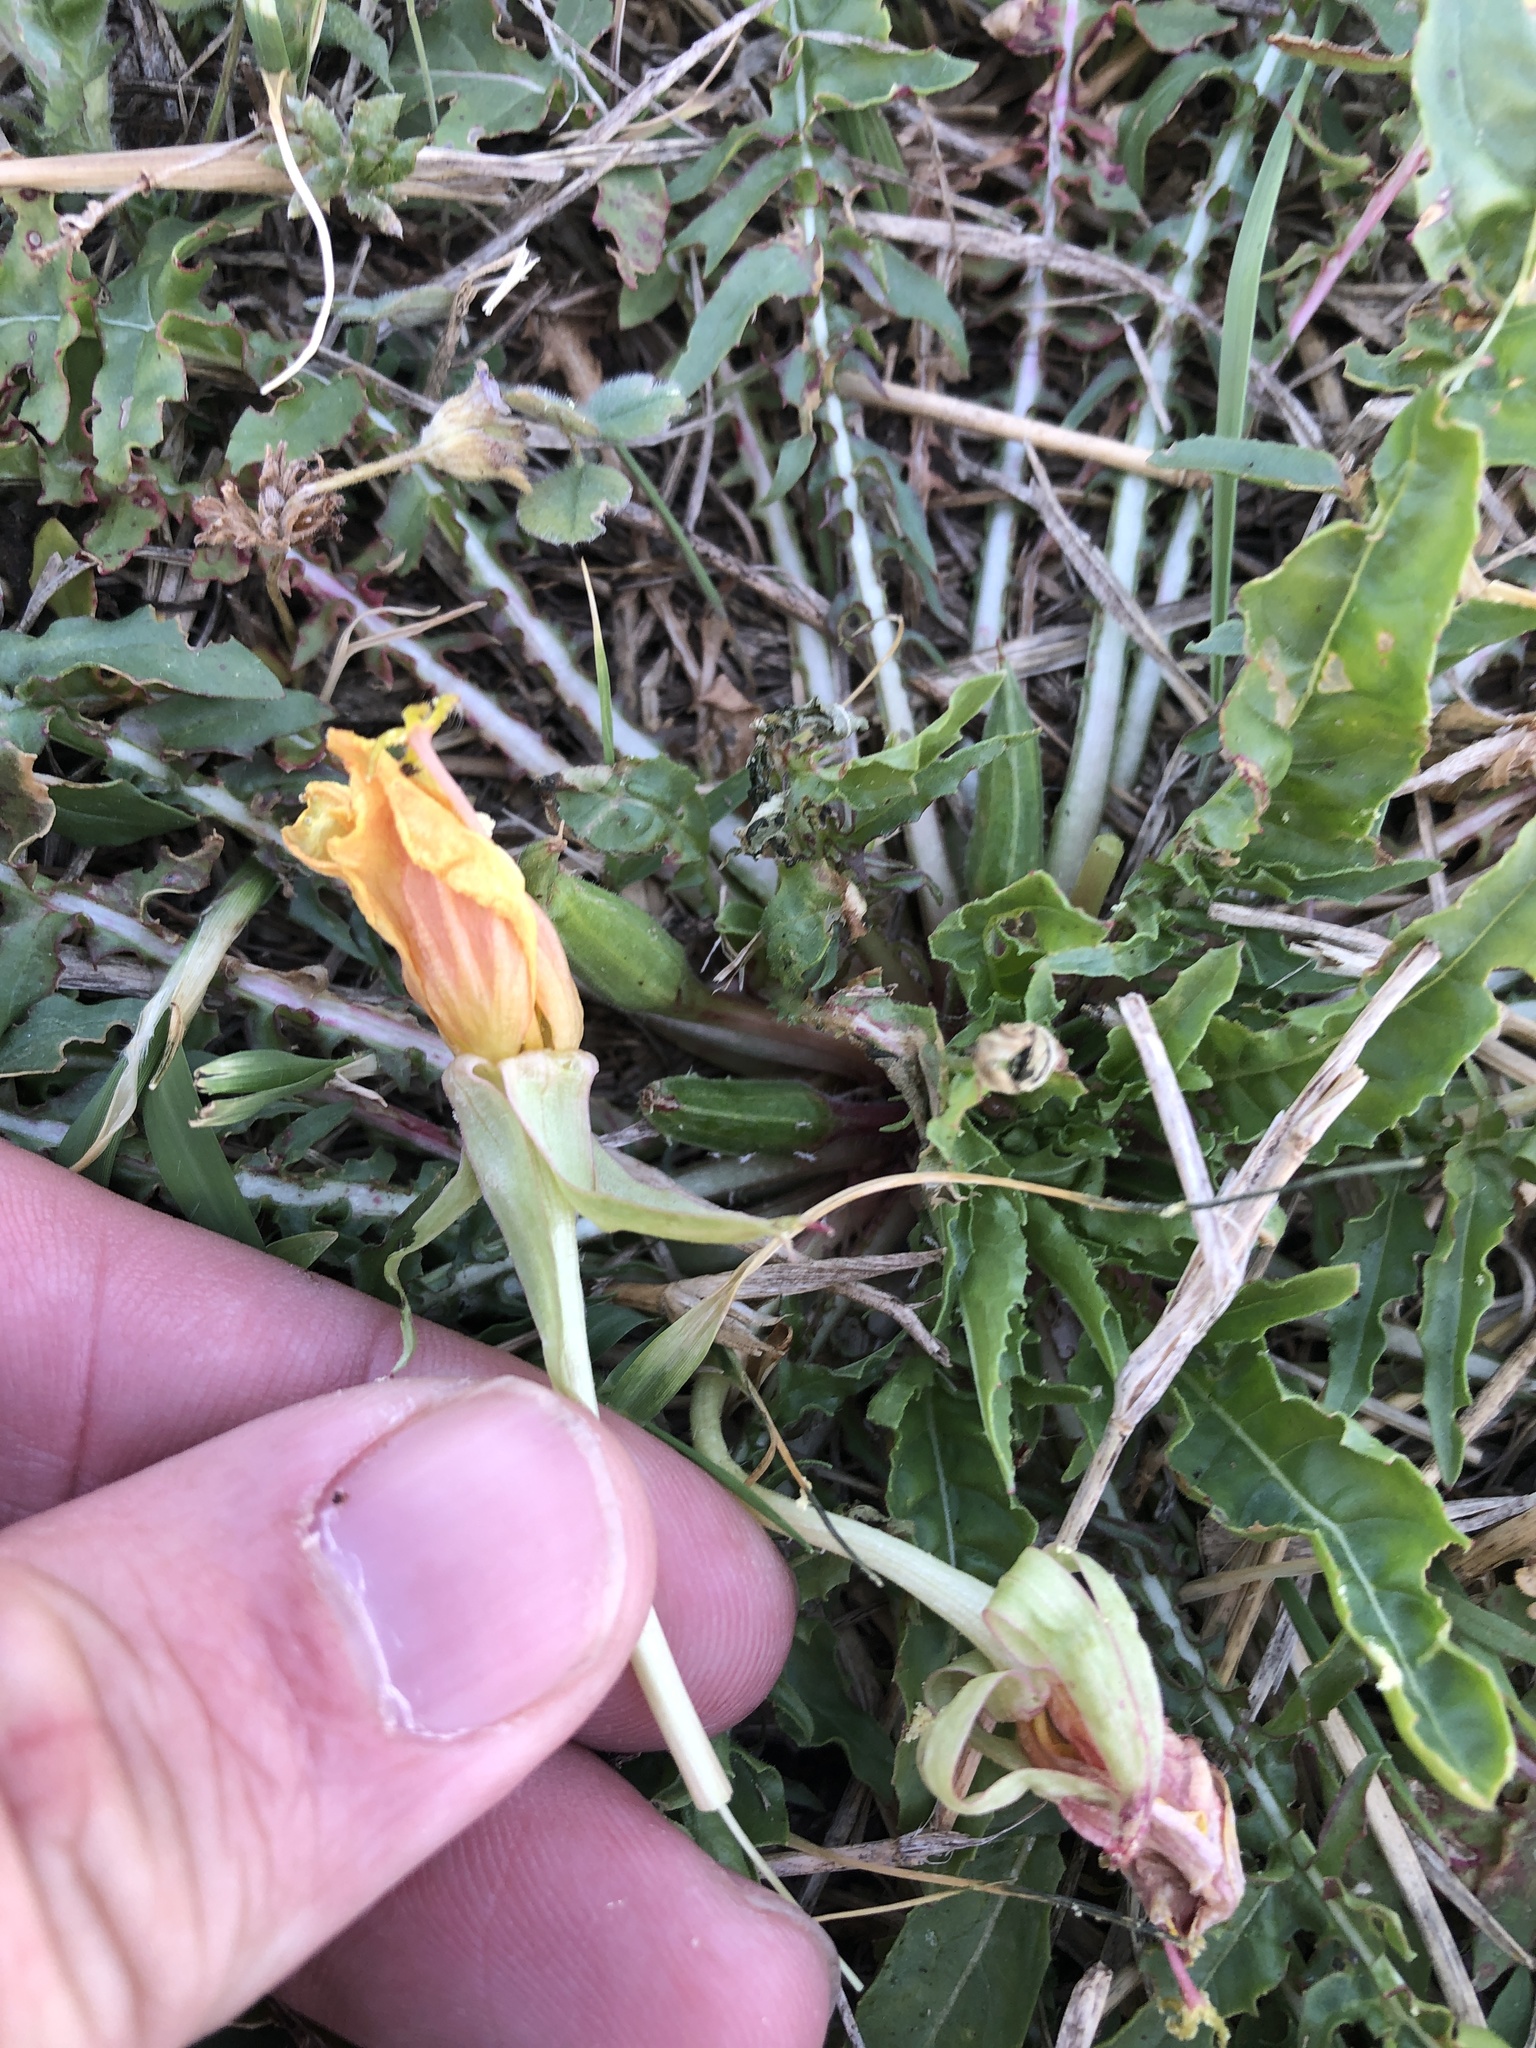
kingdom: Plantae
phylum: Tracheophyta
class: Magnoliopsida
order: Myrtales
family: Onagraceae
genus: Oenothera
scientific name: Oenothera triloba
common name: Sessile evening-primrose
